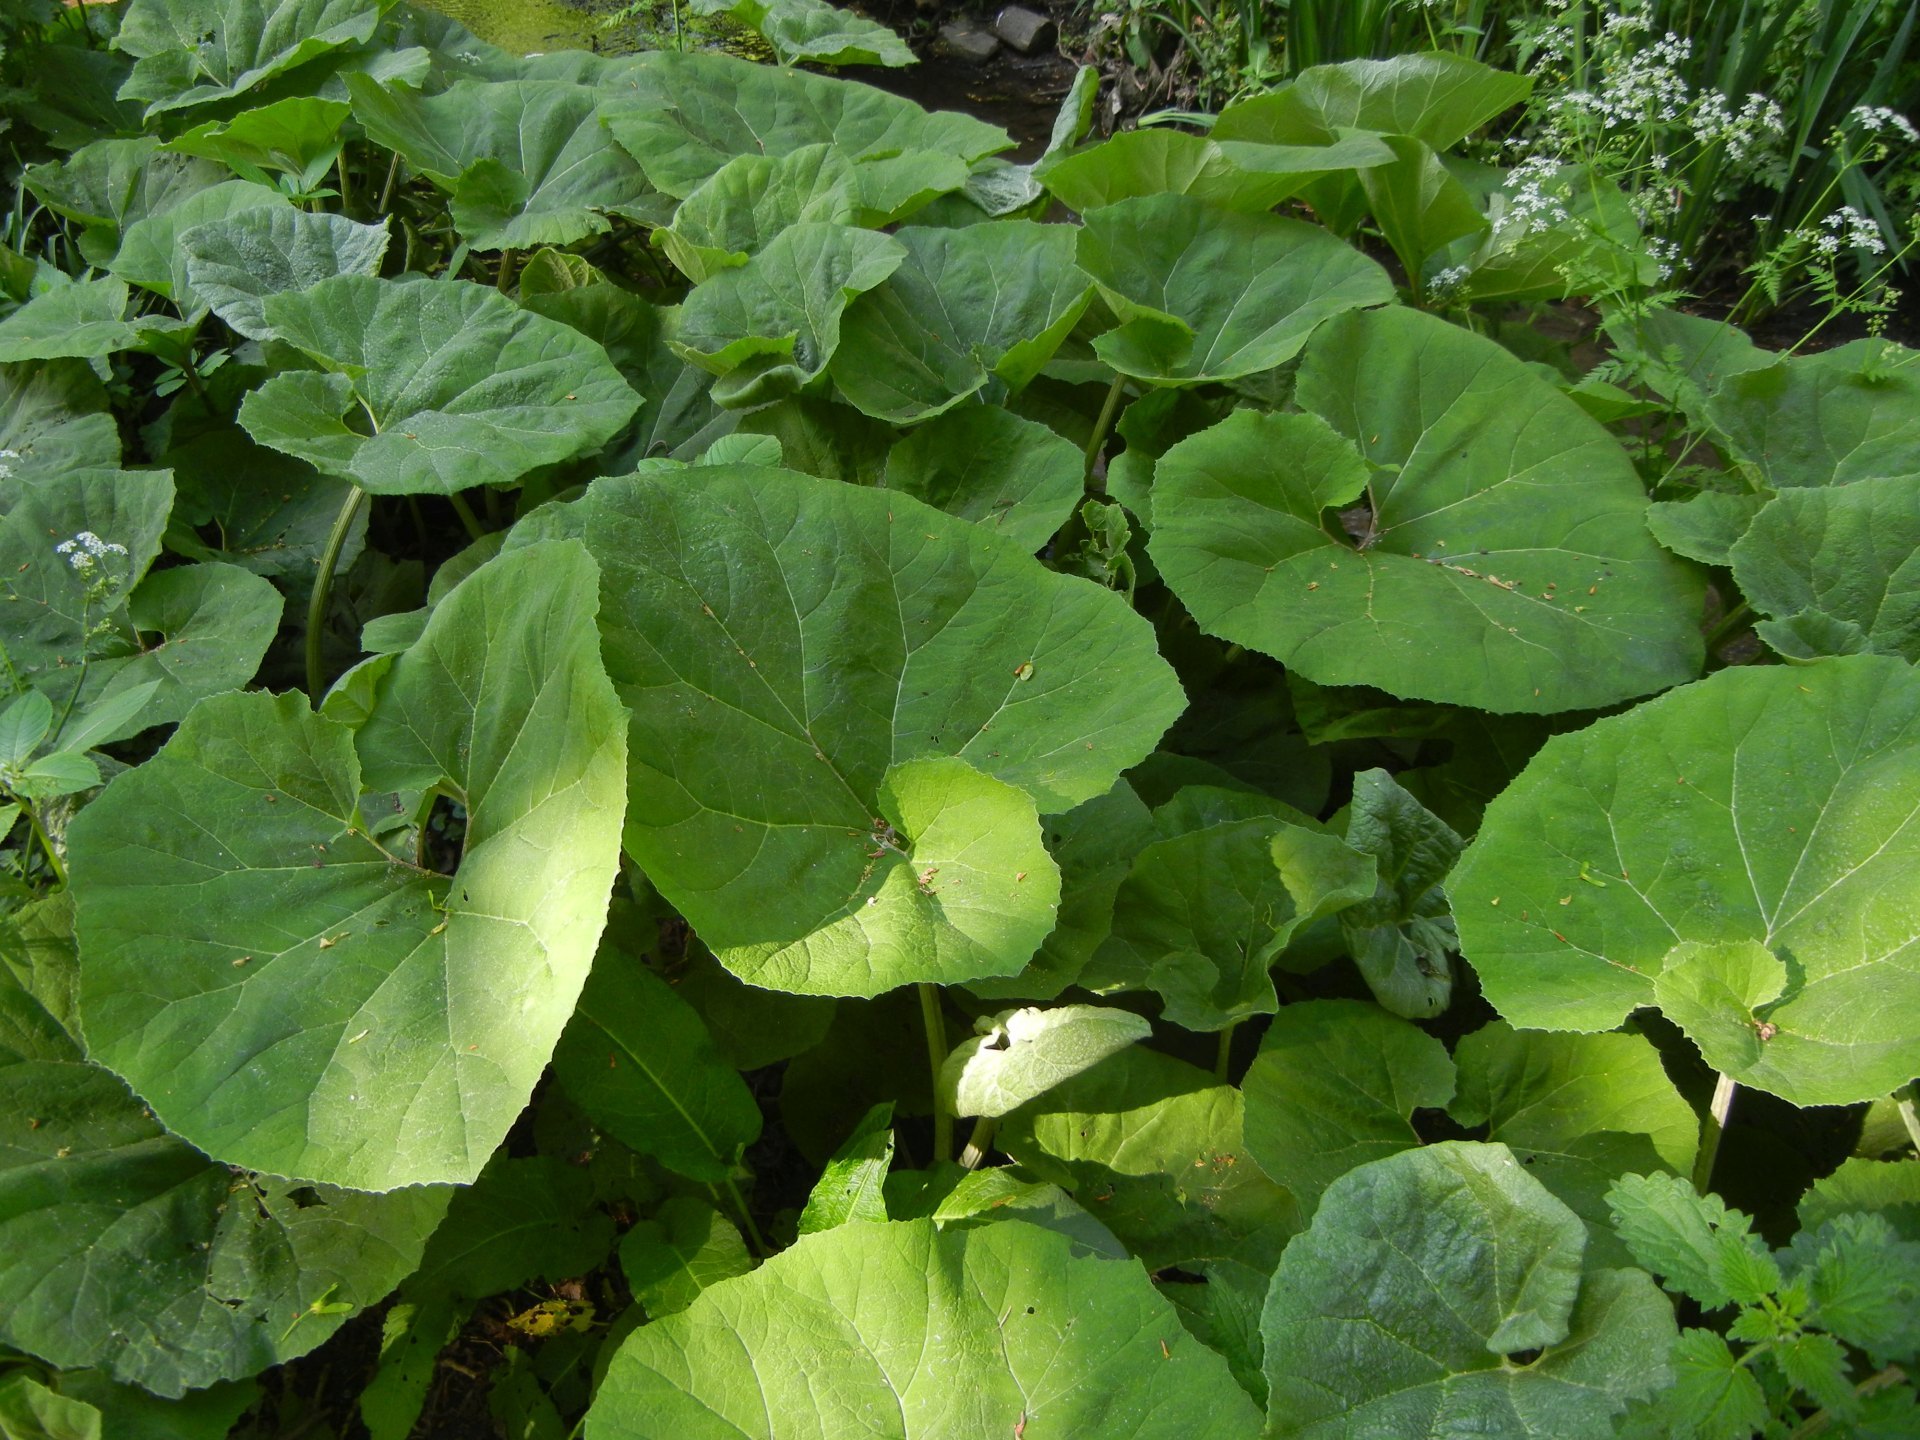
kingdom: Plantae
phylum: Tracheophyta
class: Magnoliopsida
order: Asterales
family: Asteraceae
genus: Petasites
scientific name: Petasites hybridus
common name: Butterbur
